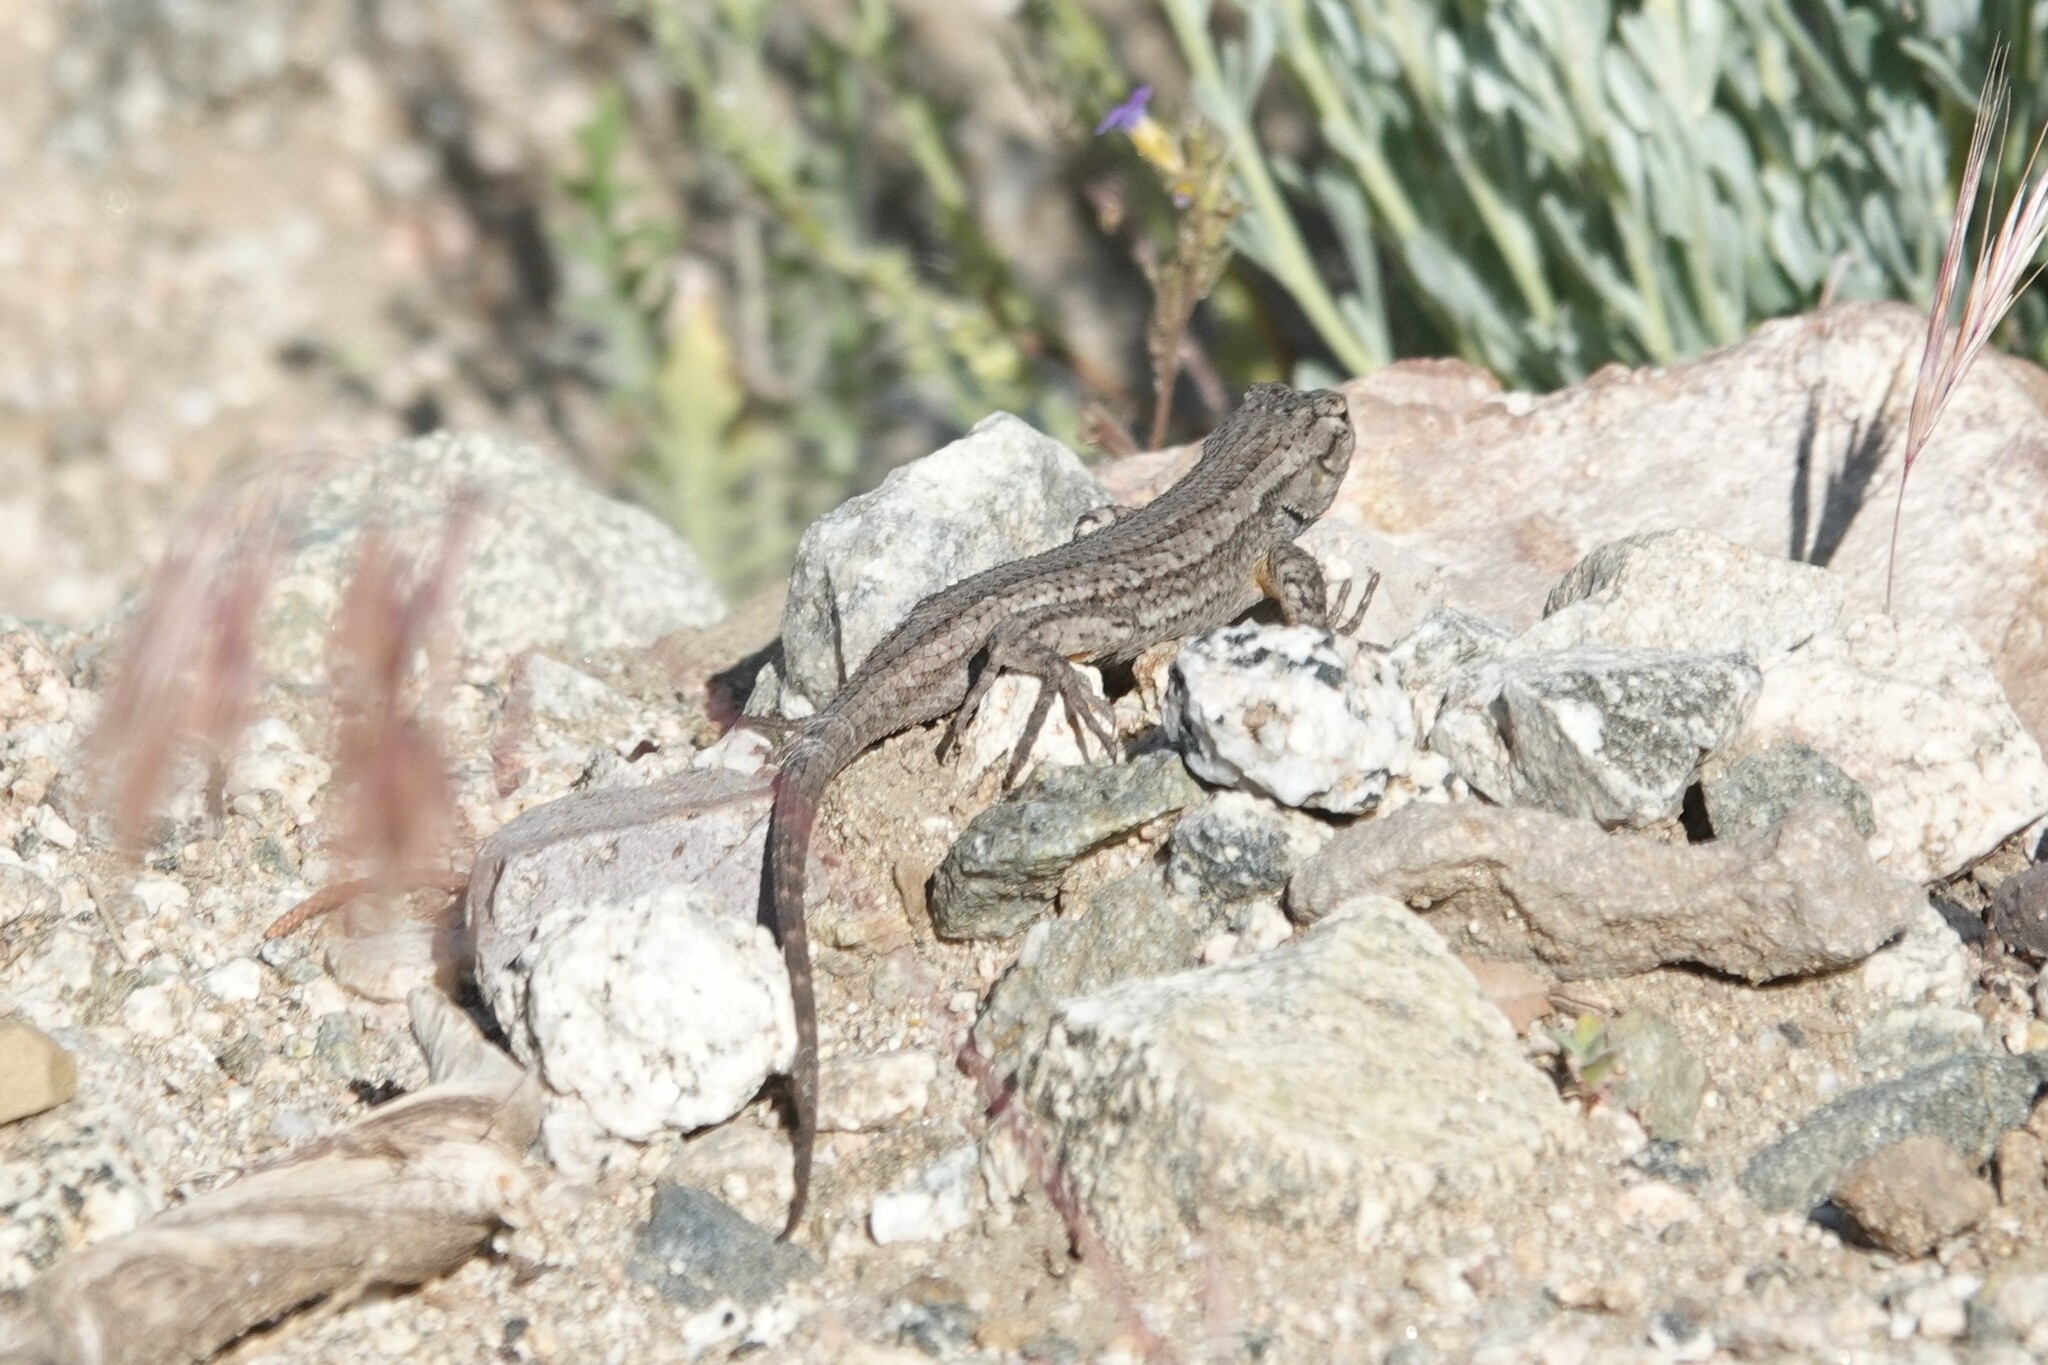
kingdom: Animalia
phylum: Chordata
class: Squamata
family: Phrynosomatidae
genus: Sceloporus
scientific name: Sceloporus occidentalis
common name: Western fence lizard
